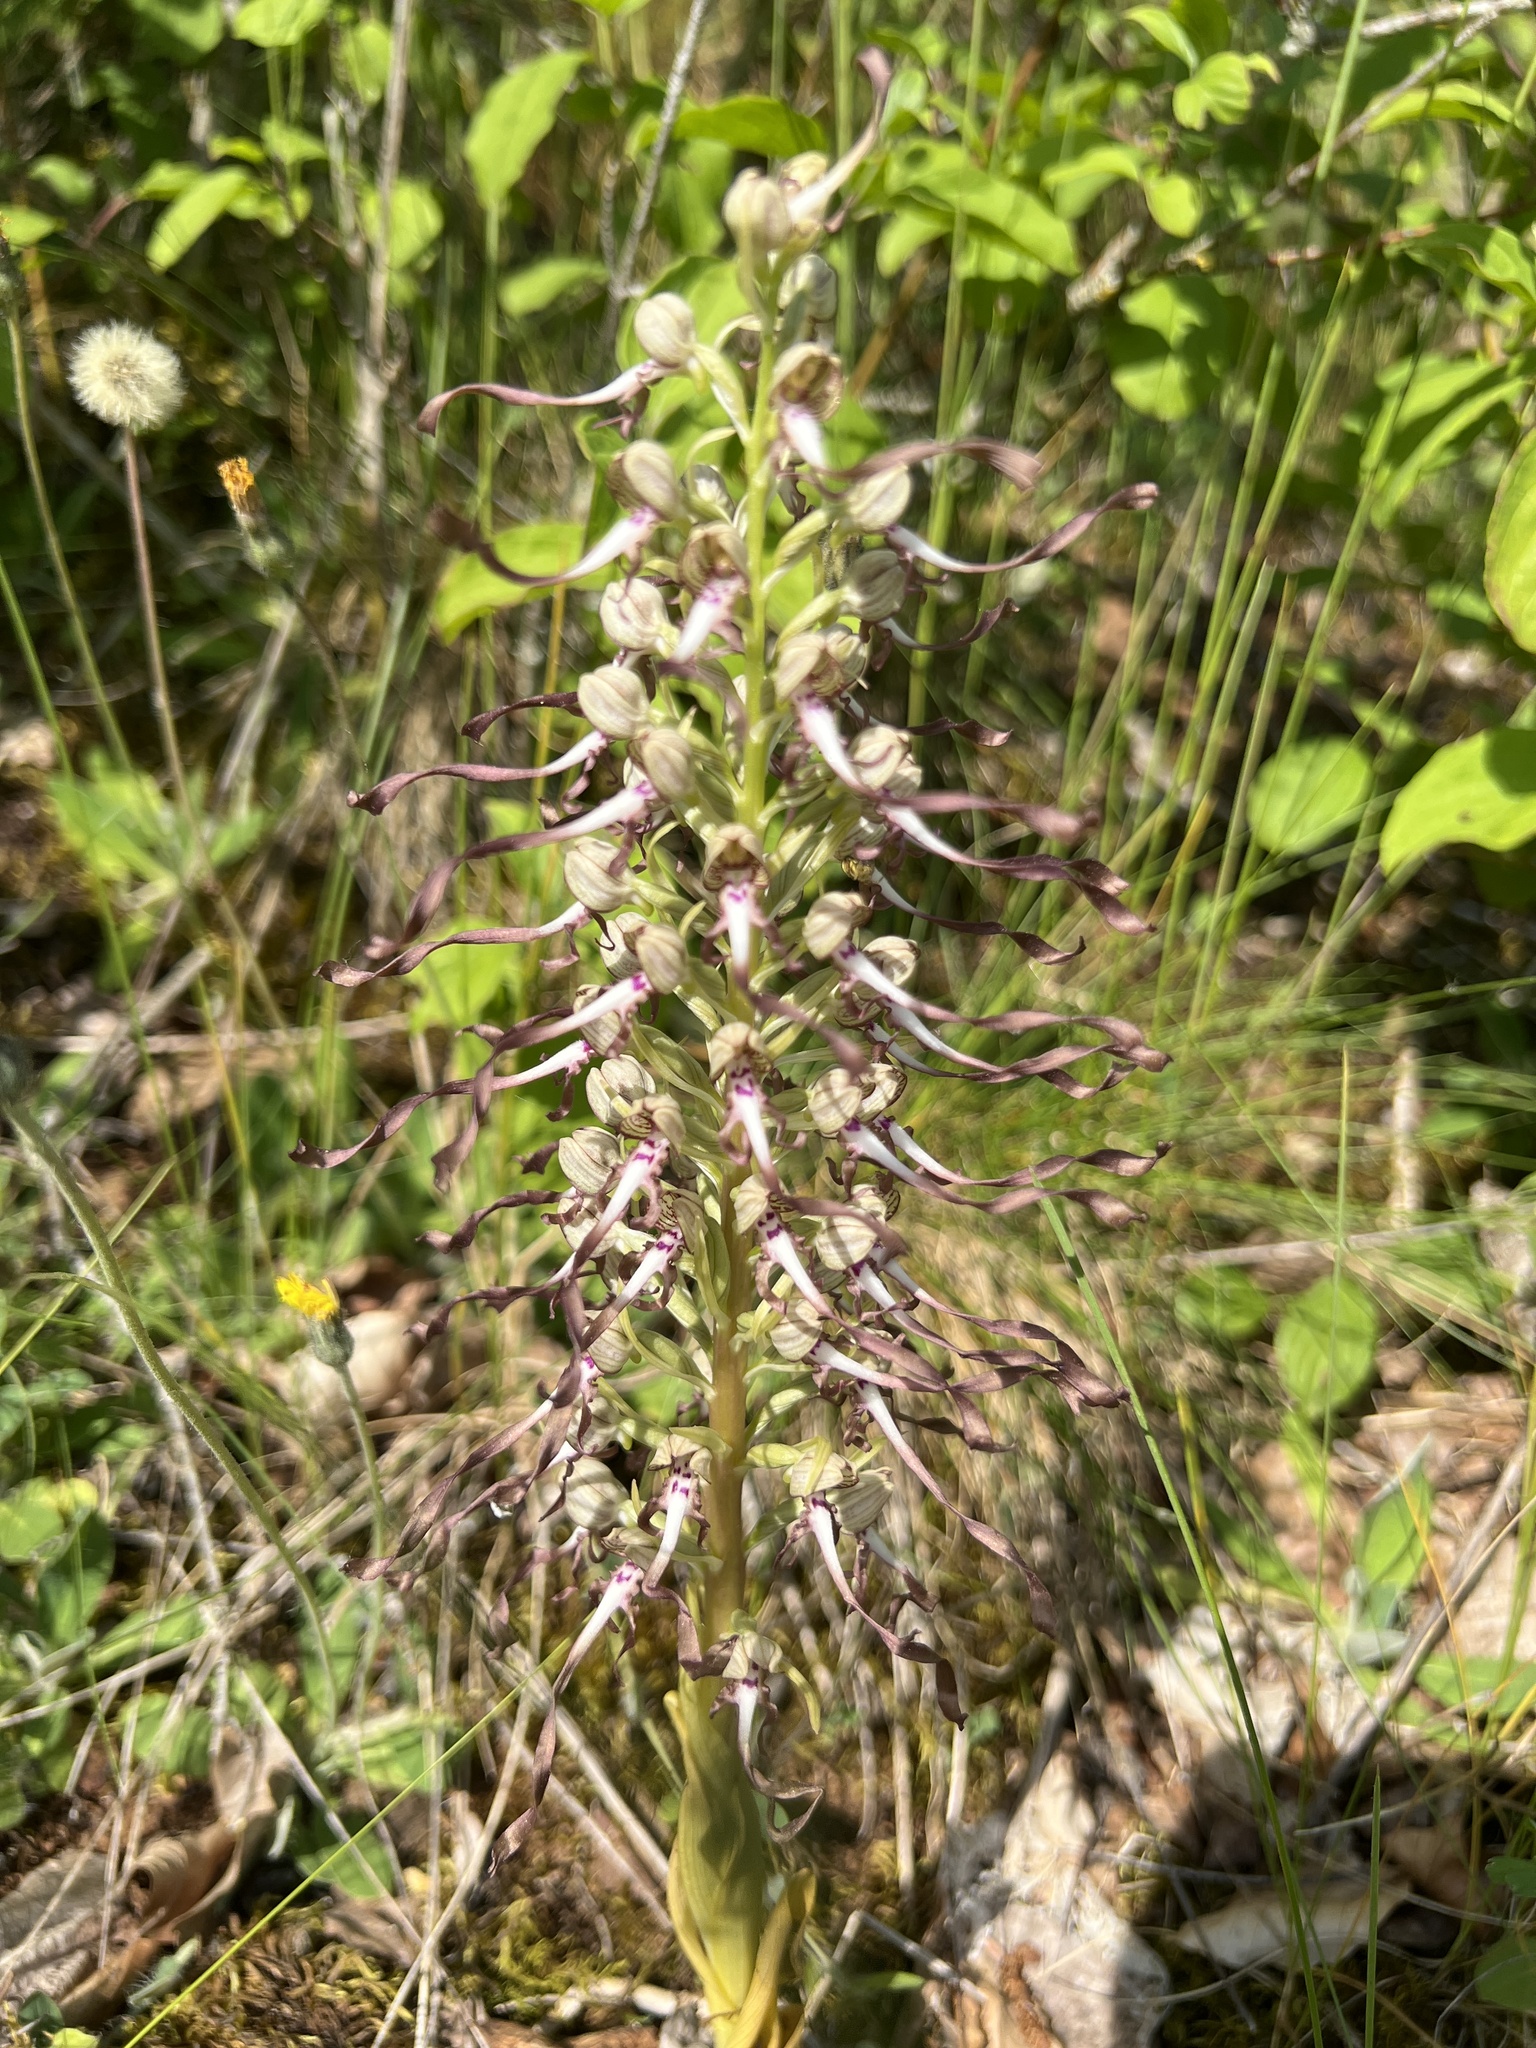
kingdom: Plantae
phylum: Tracheophyta
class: Liliopsida
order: Asparagales
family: Orchidaceae
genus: Himantoglossum
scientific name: Himantoglossum hircinum
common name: Lizard orchid
